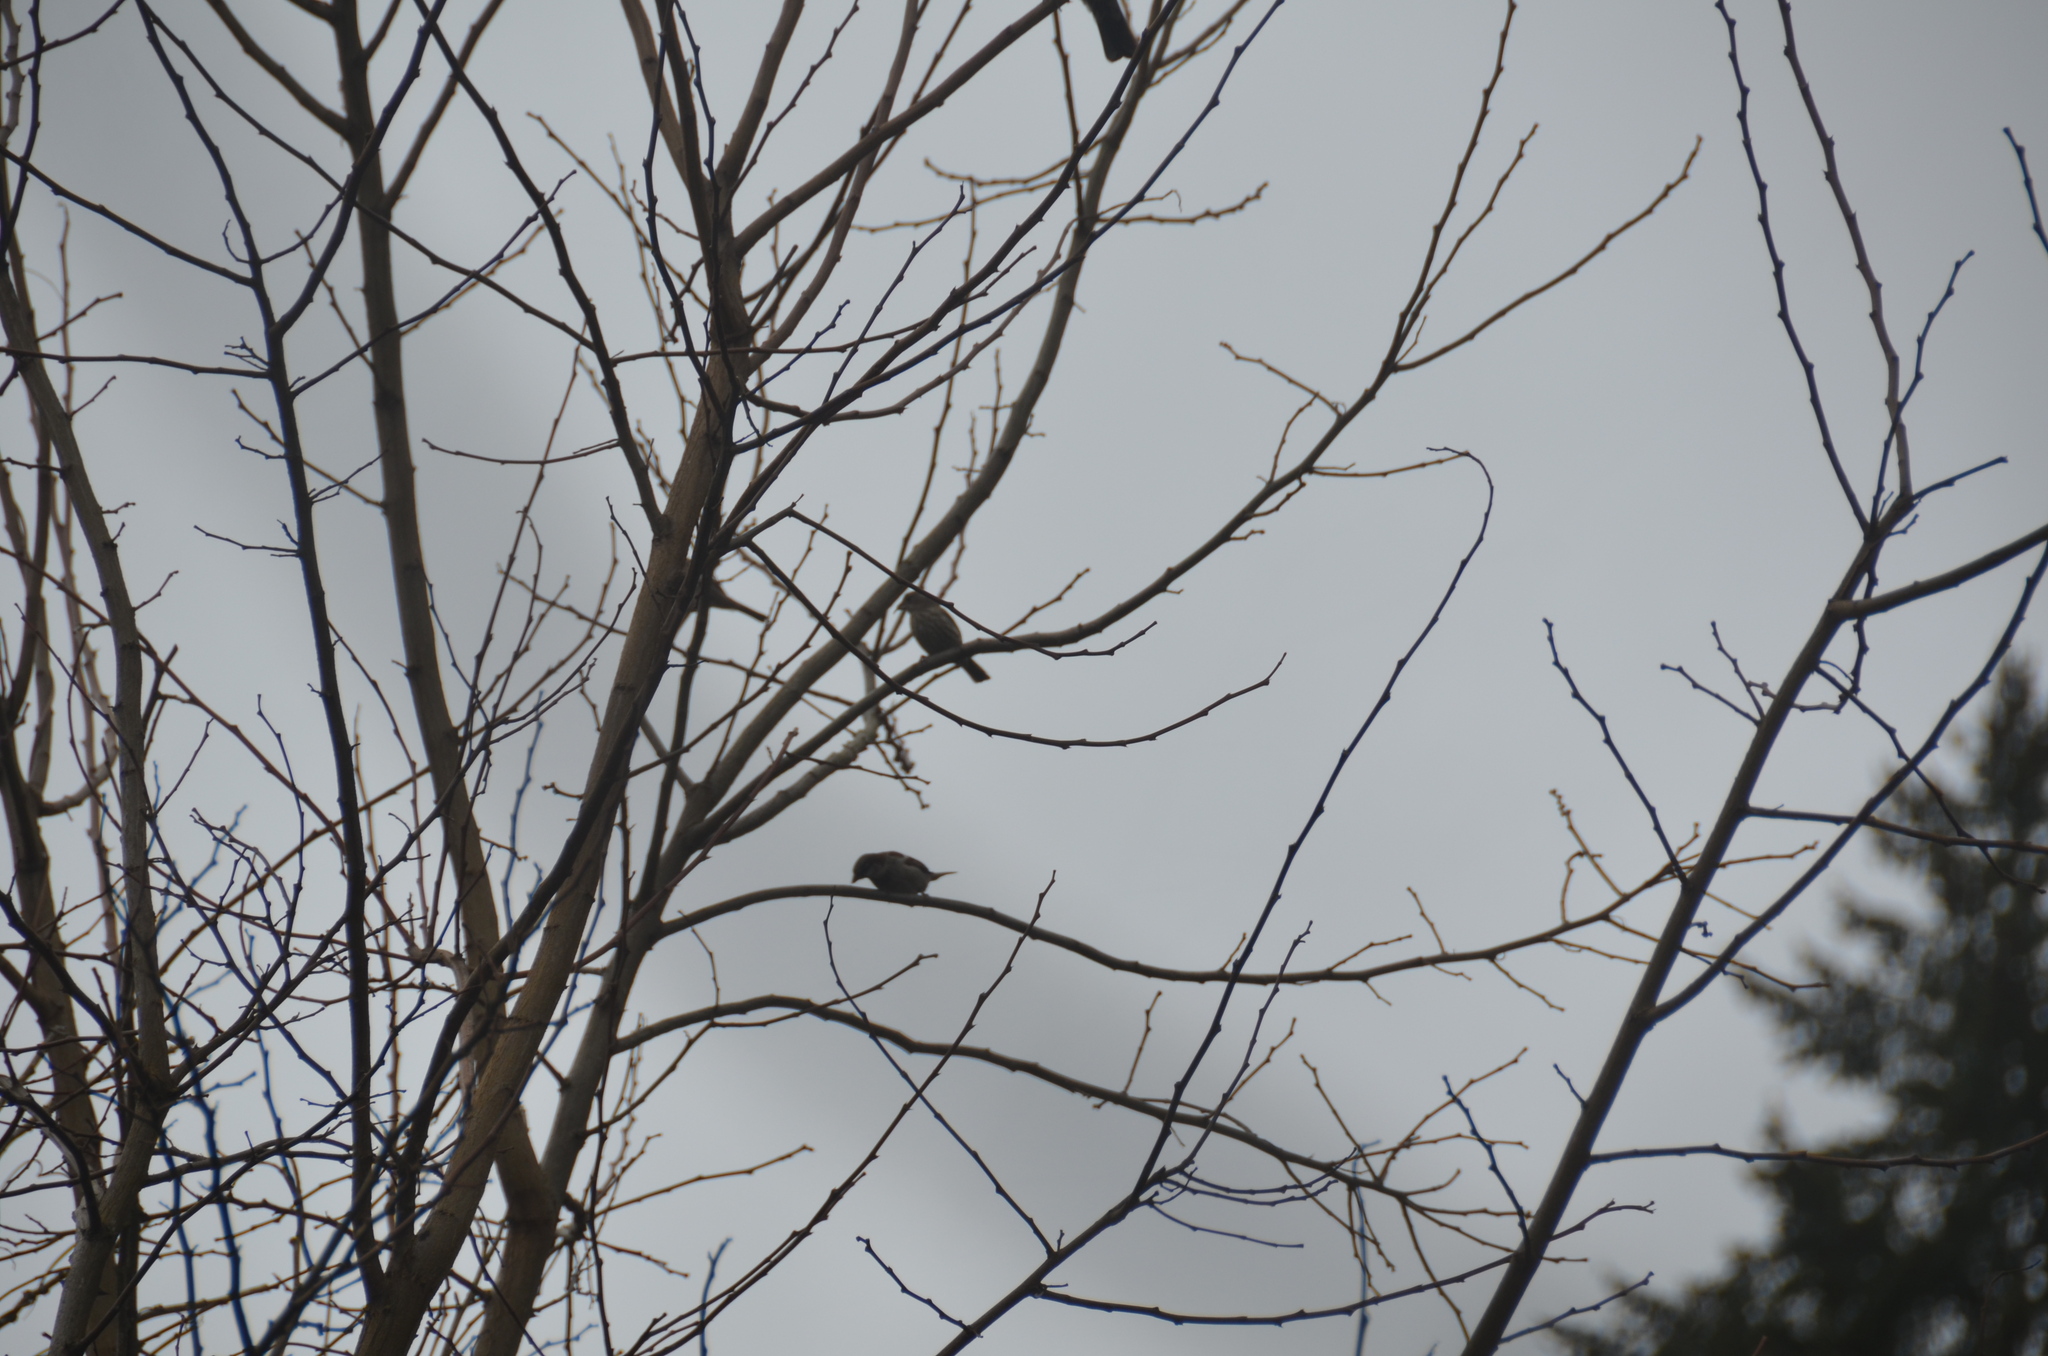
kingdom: Animalia
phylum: Chordata
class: Aves
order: Passeriformes
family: Passeridae
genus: Passer
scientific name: Passer domesticus
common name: House sparrow
